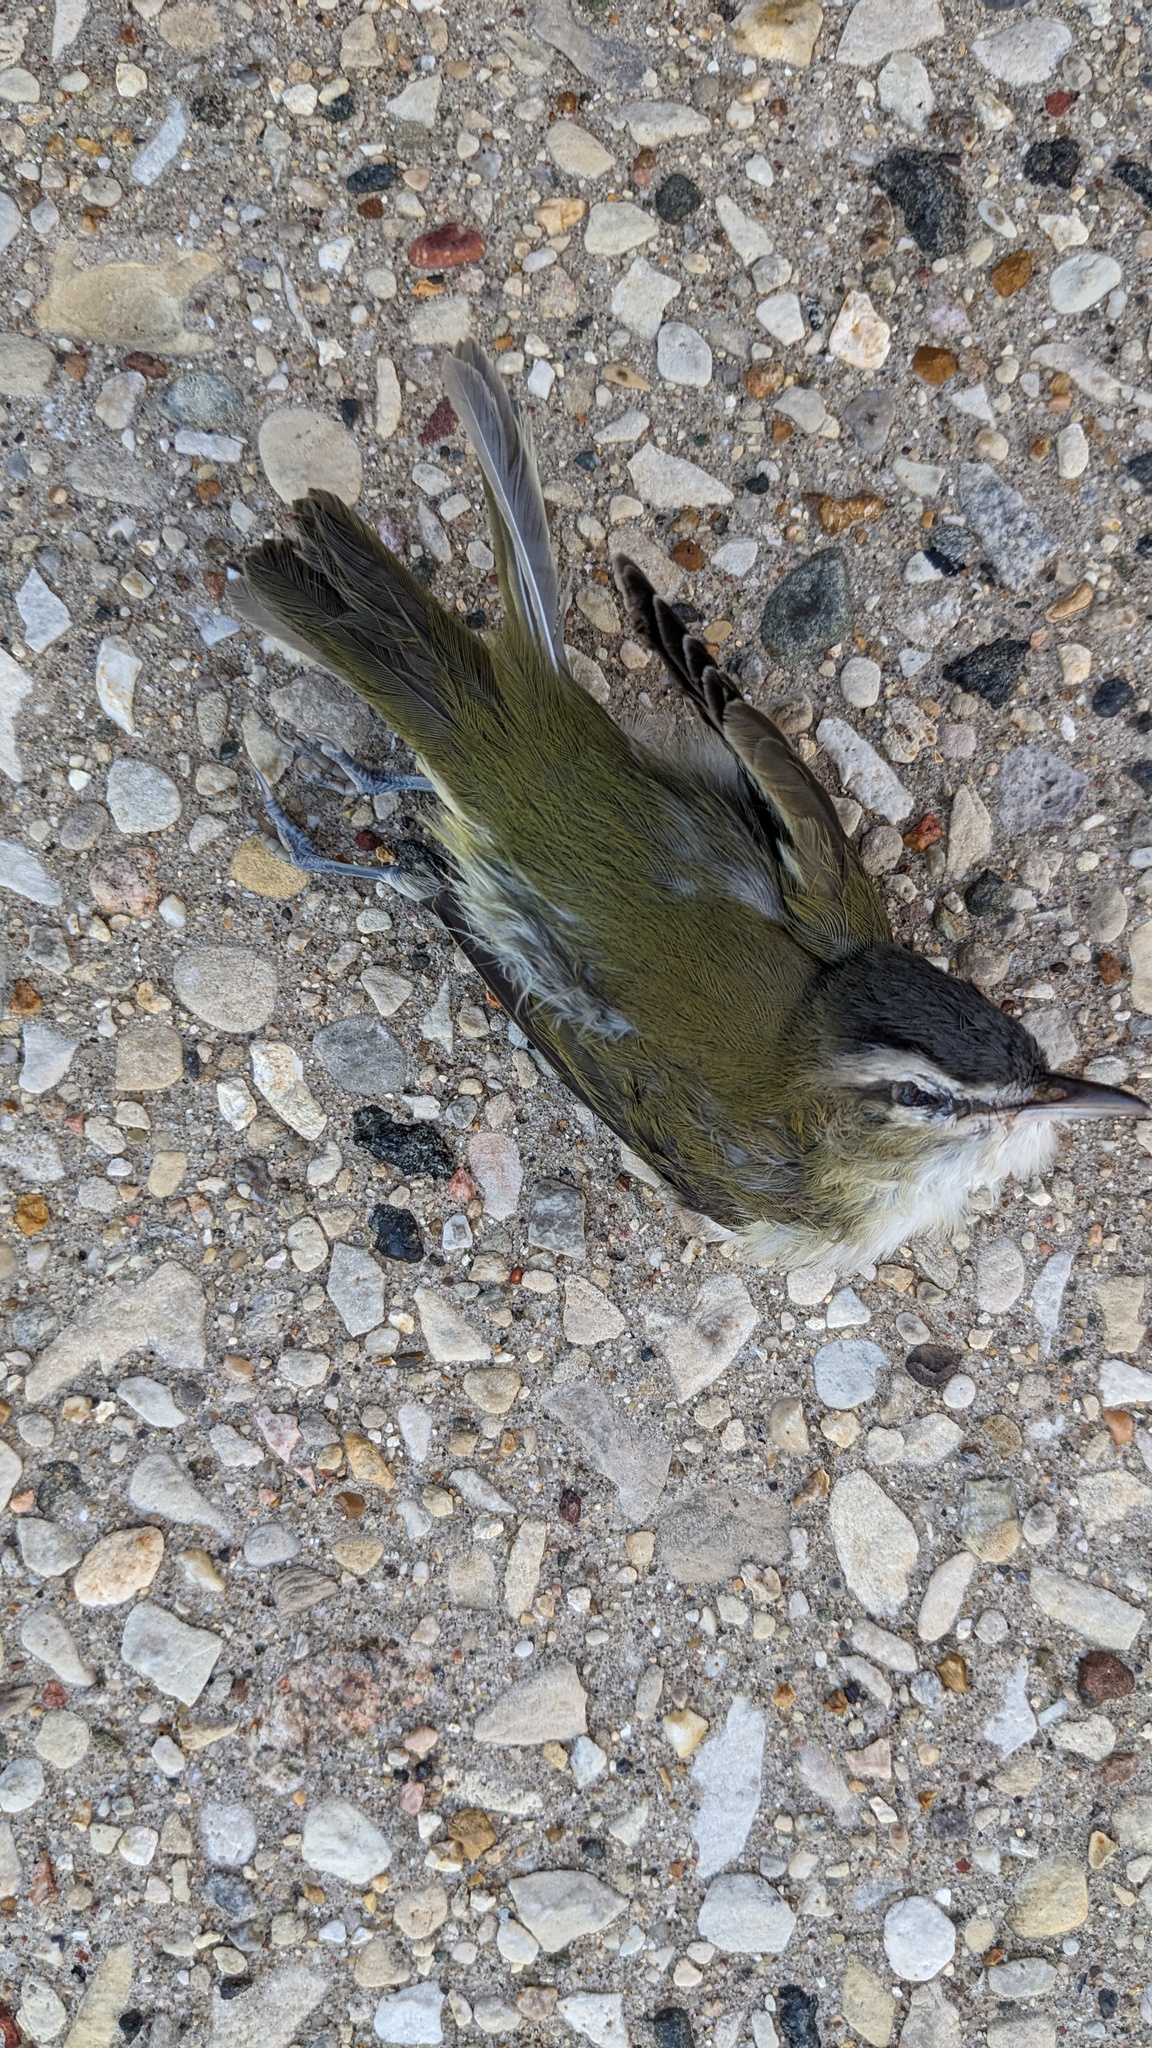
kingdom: Animalia
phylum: Chordata
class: Aves
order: Passeriformes
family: Vireonidae
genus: Vireo
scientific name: Vireo olivaceus
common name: Red-eyed vireo
